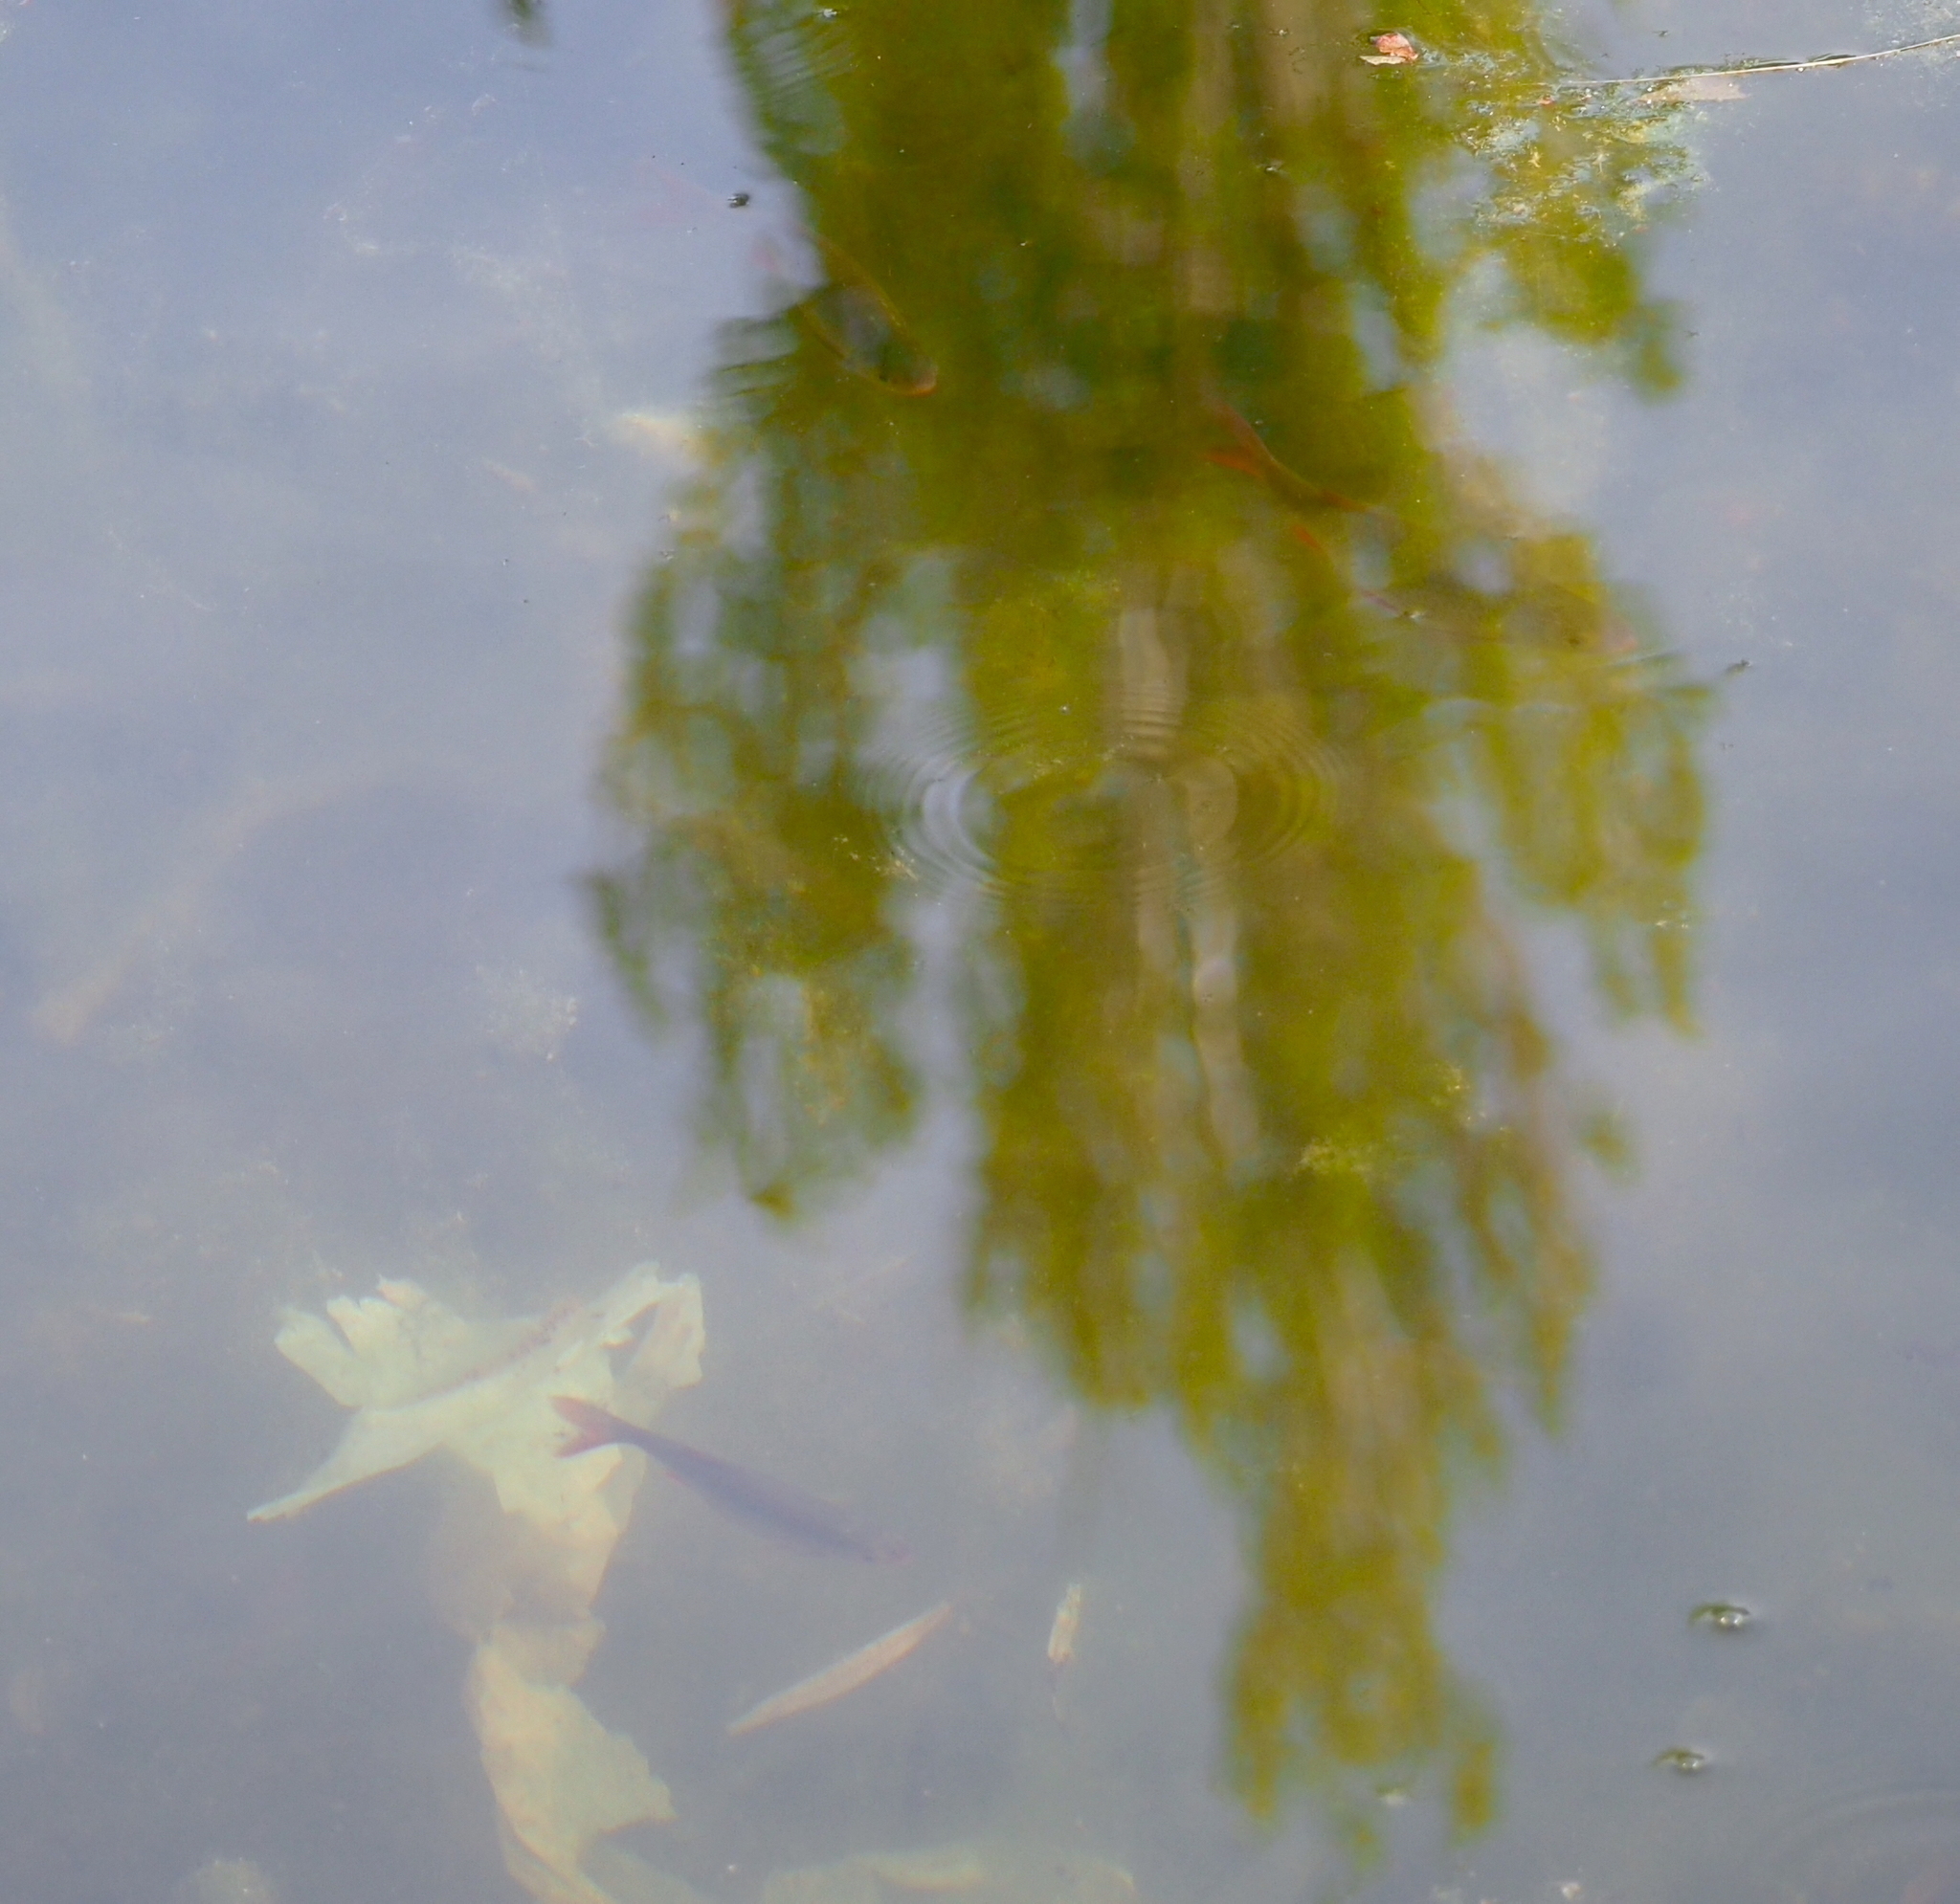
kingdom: Animalia
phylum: Chordata
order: Cypriniformes
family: Cyprinidae
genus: Scardinius
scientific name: Scardinius erythrophthalmus
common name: Rudd
